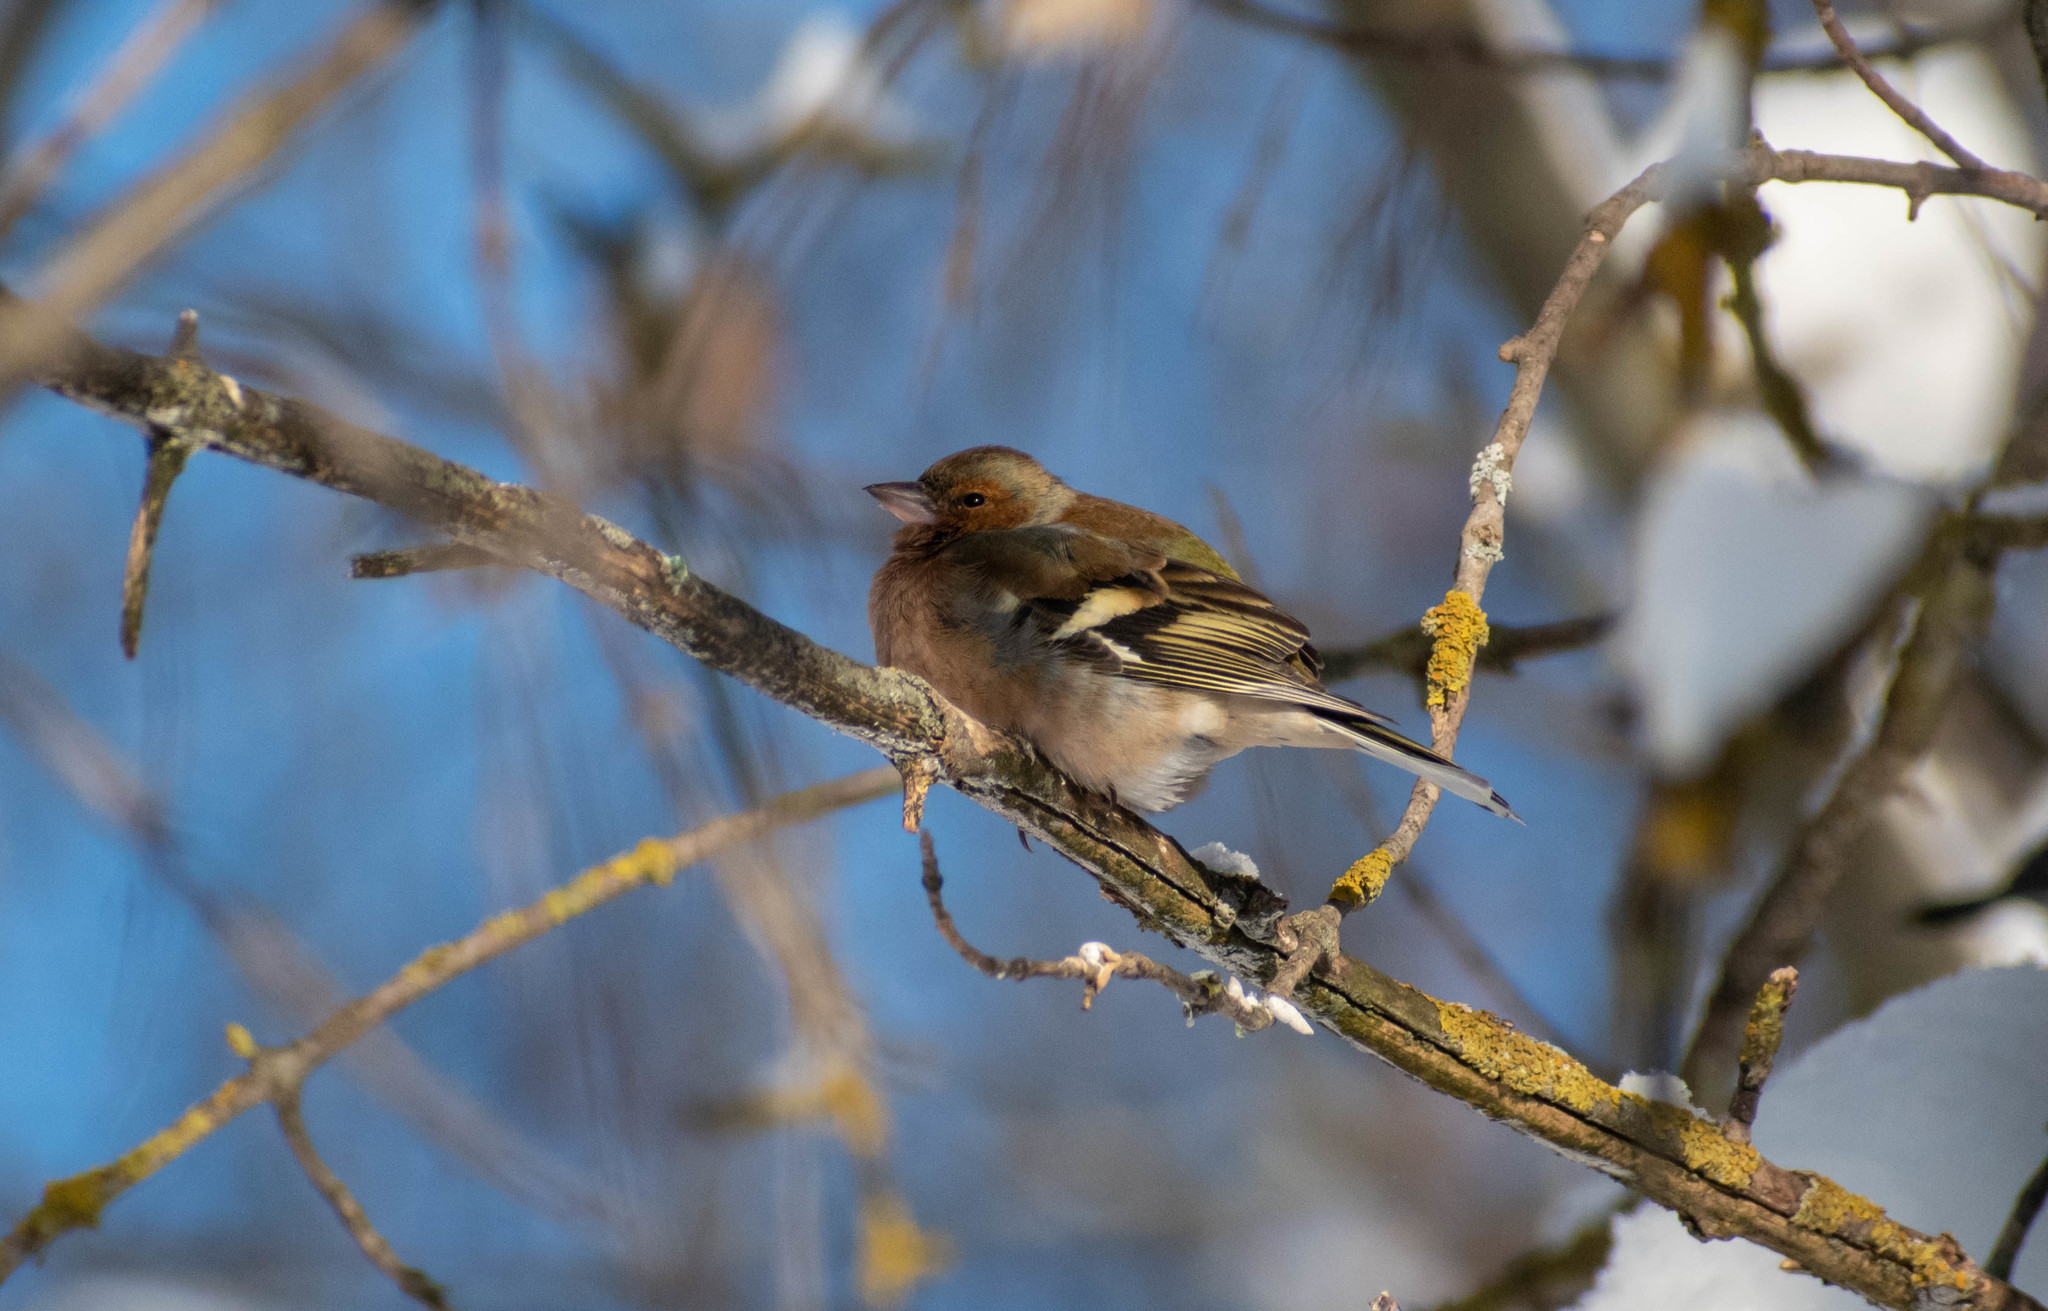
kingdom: Animalia
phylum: Chordata
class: Aves
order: Passeriformes
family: Fringillidae
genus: Fringilla
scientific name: Fringilla coelebs
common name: Common chaffinch
